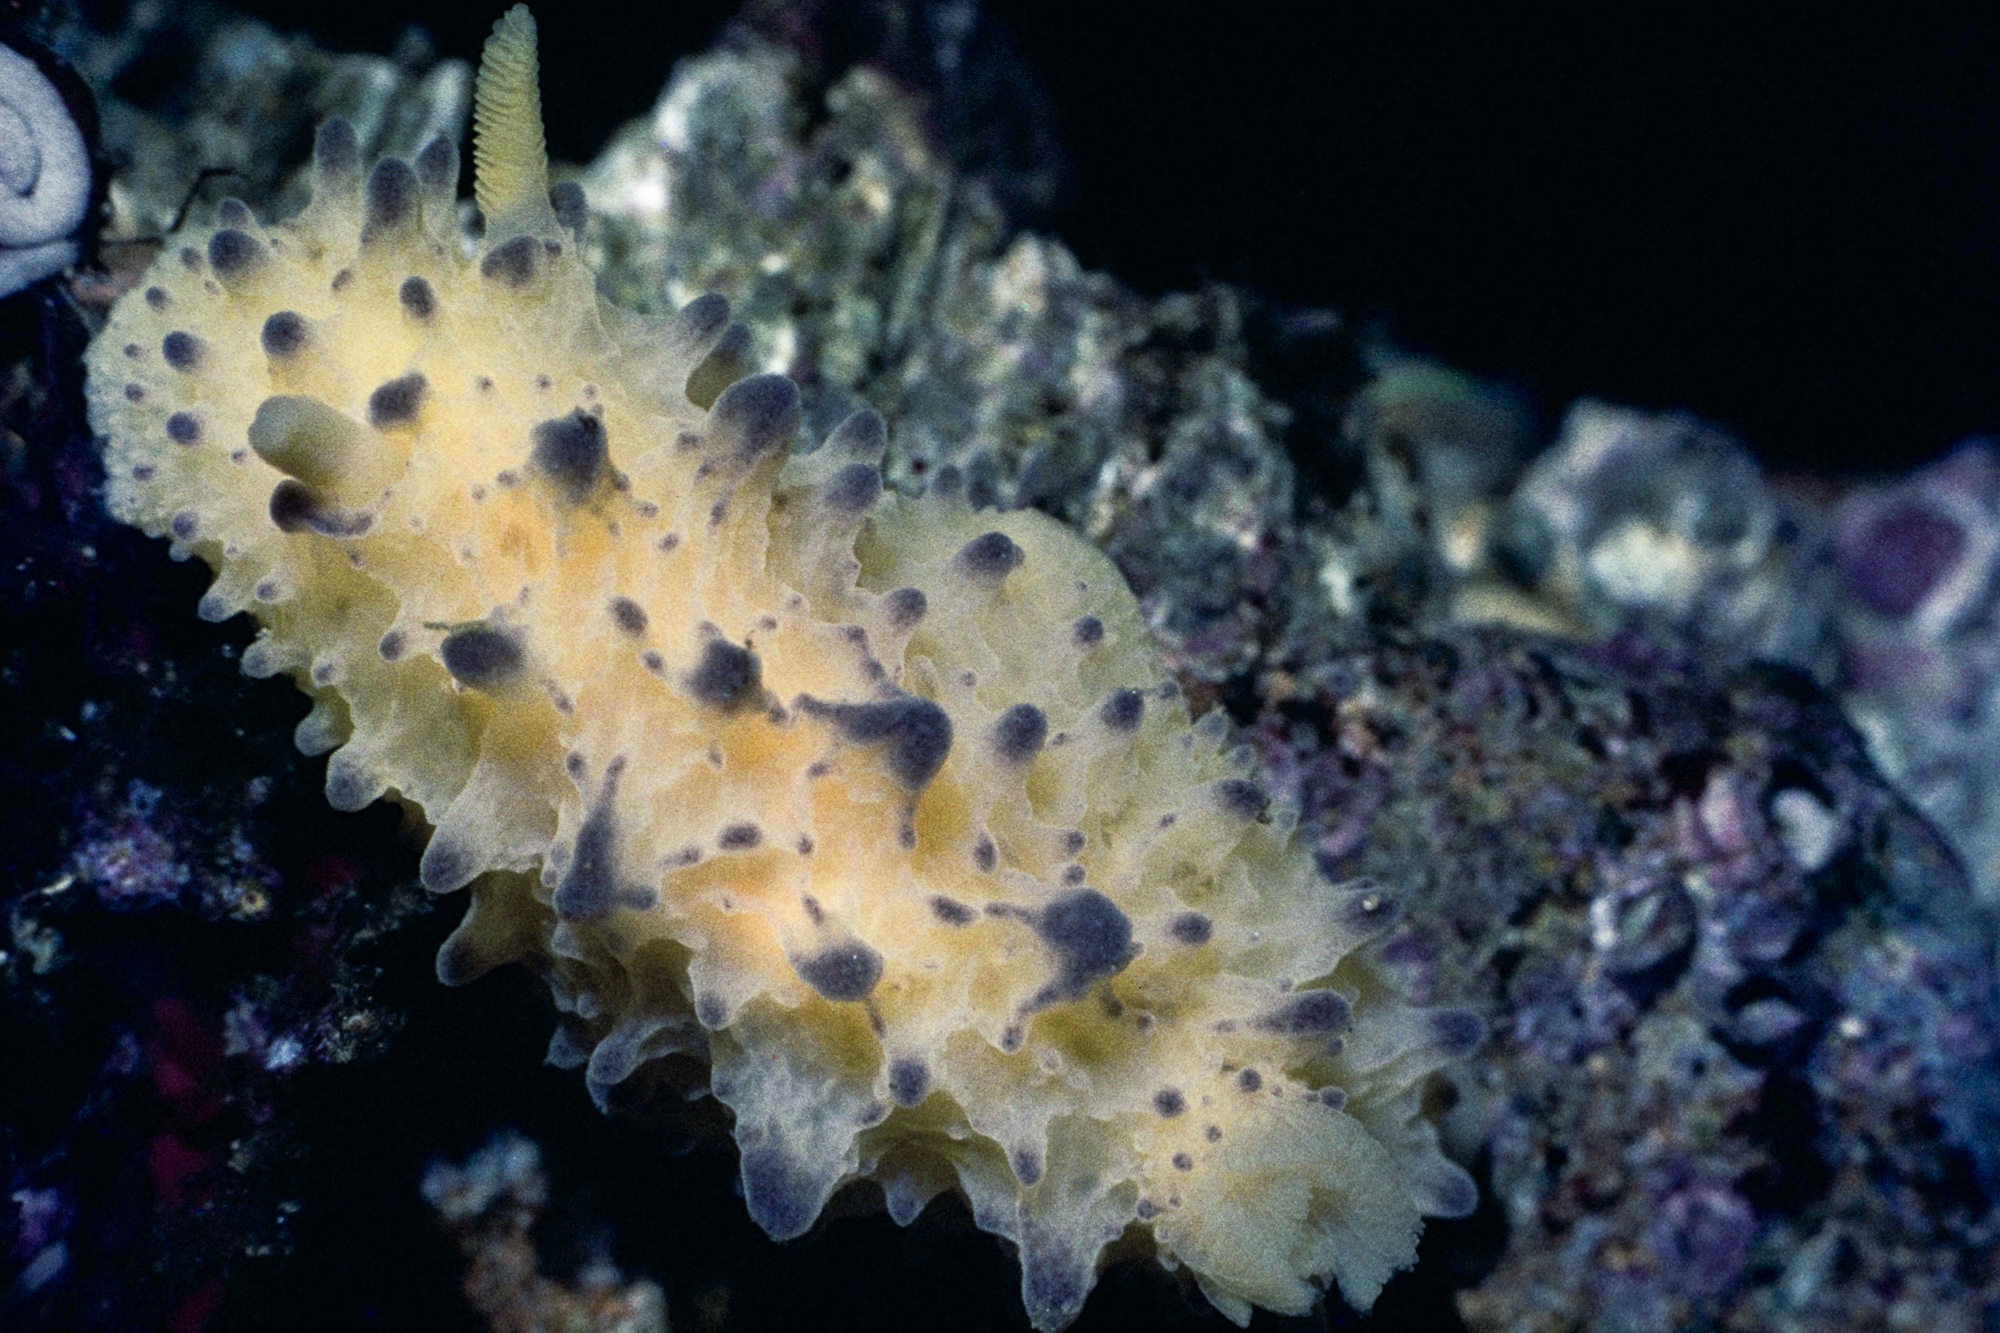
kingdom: Animalia
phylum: Mollusca
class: Gastropoda
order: Nudibranchia
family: Dorididae
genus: Doris
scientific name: Doris sticta
